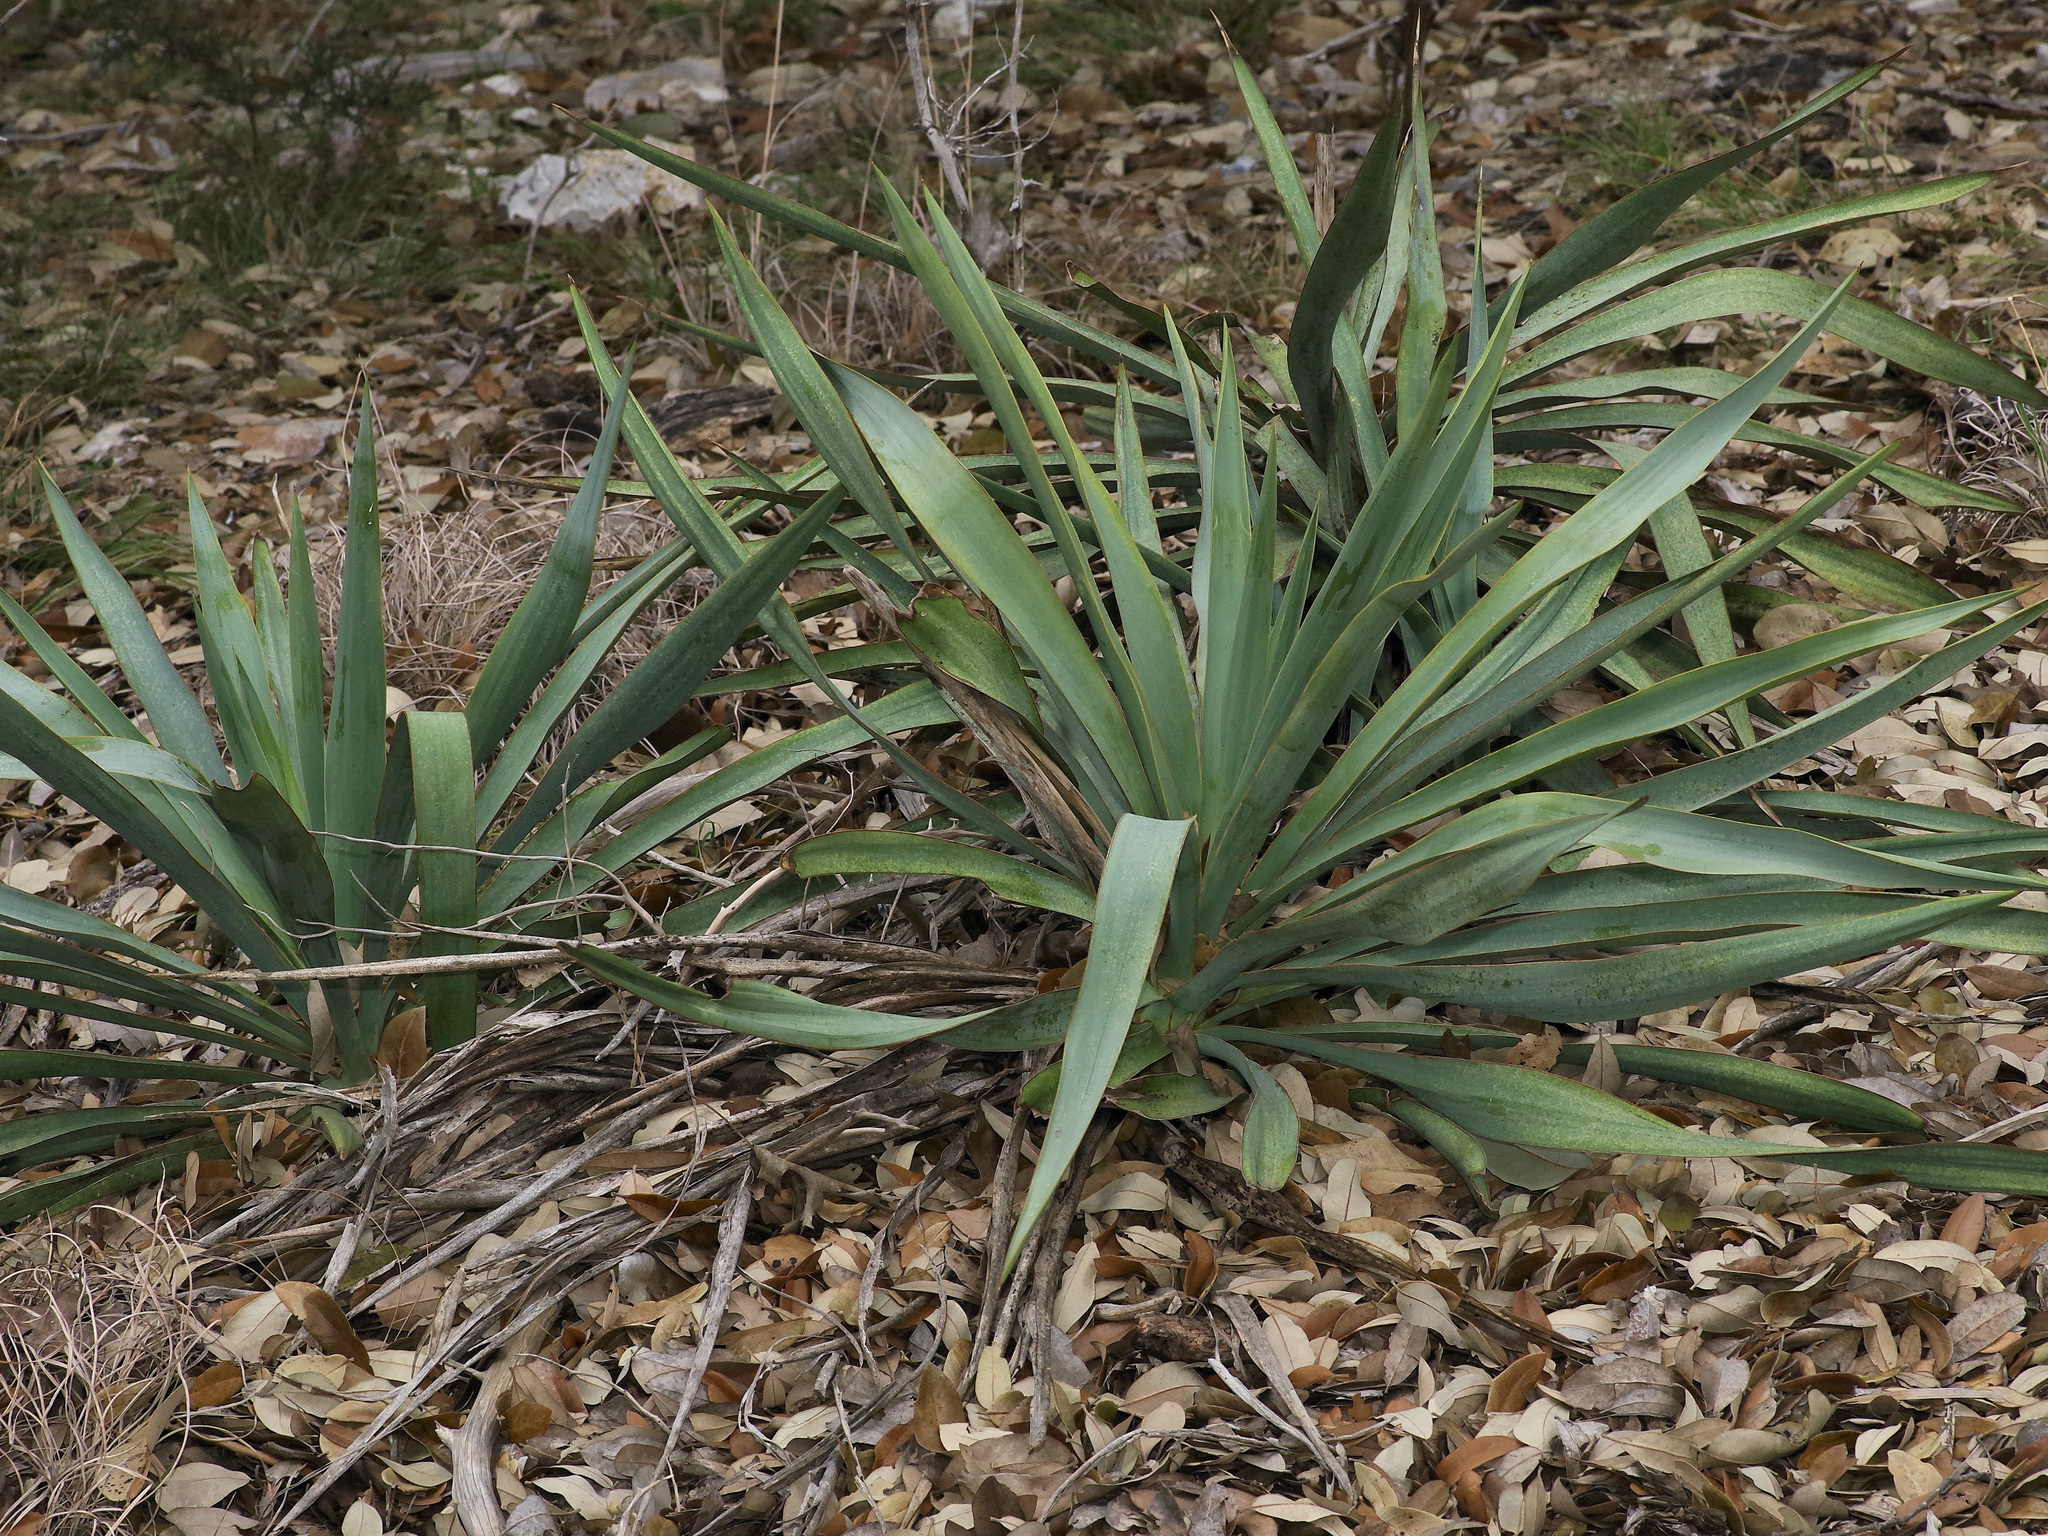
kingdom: Plantae
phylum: Tracheophyta
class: Liliopsida
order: Asparagales
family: Asparagaceae
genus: Yucca
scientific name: Yucca rupicola
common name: Twisted-leaf spanish-dagger
